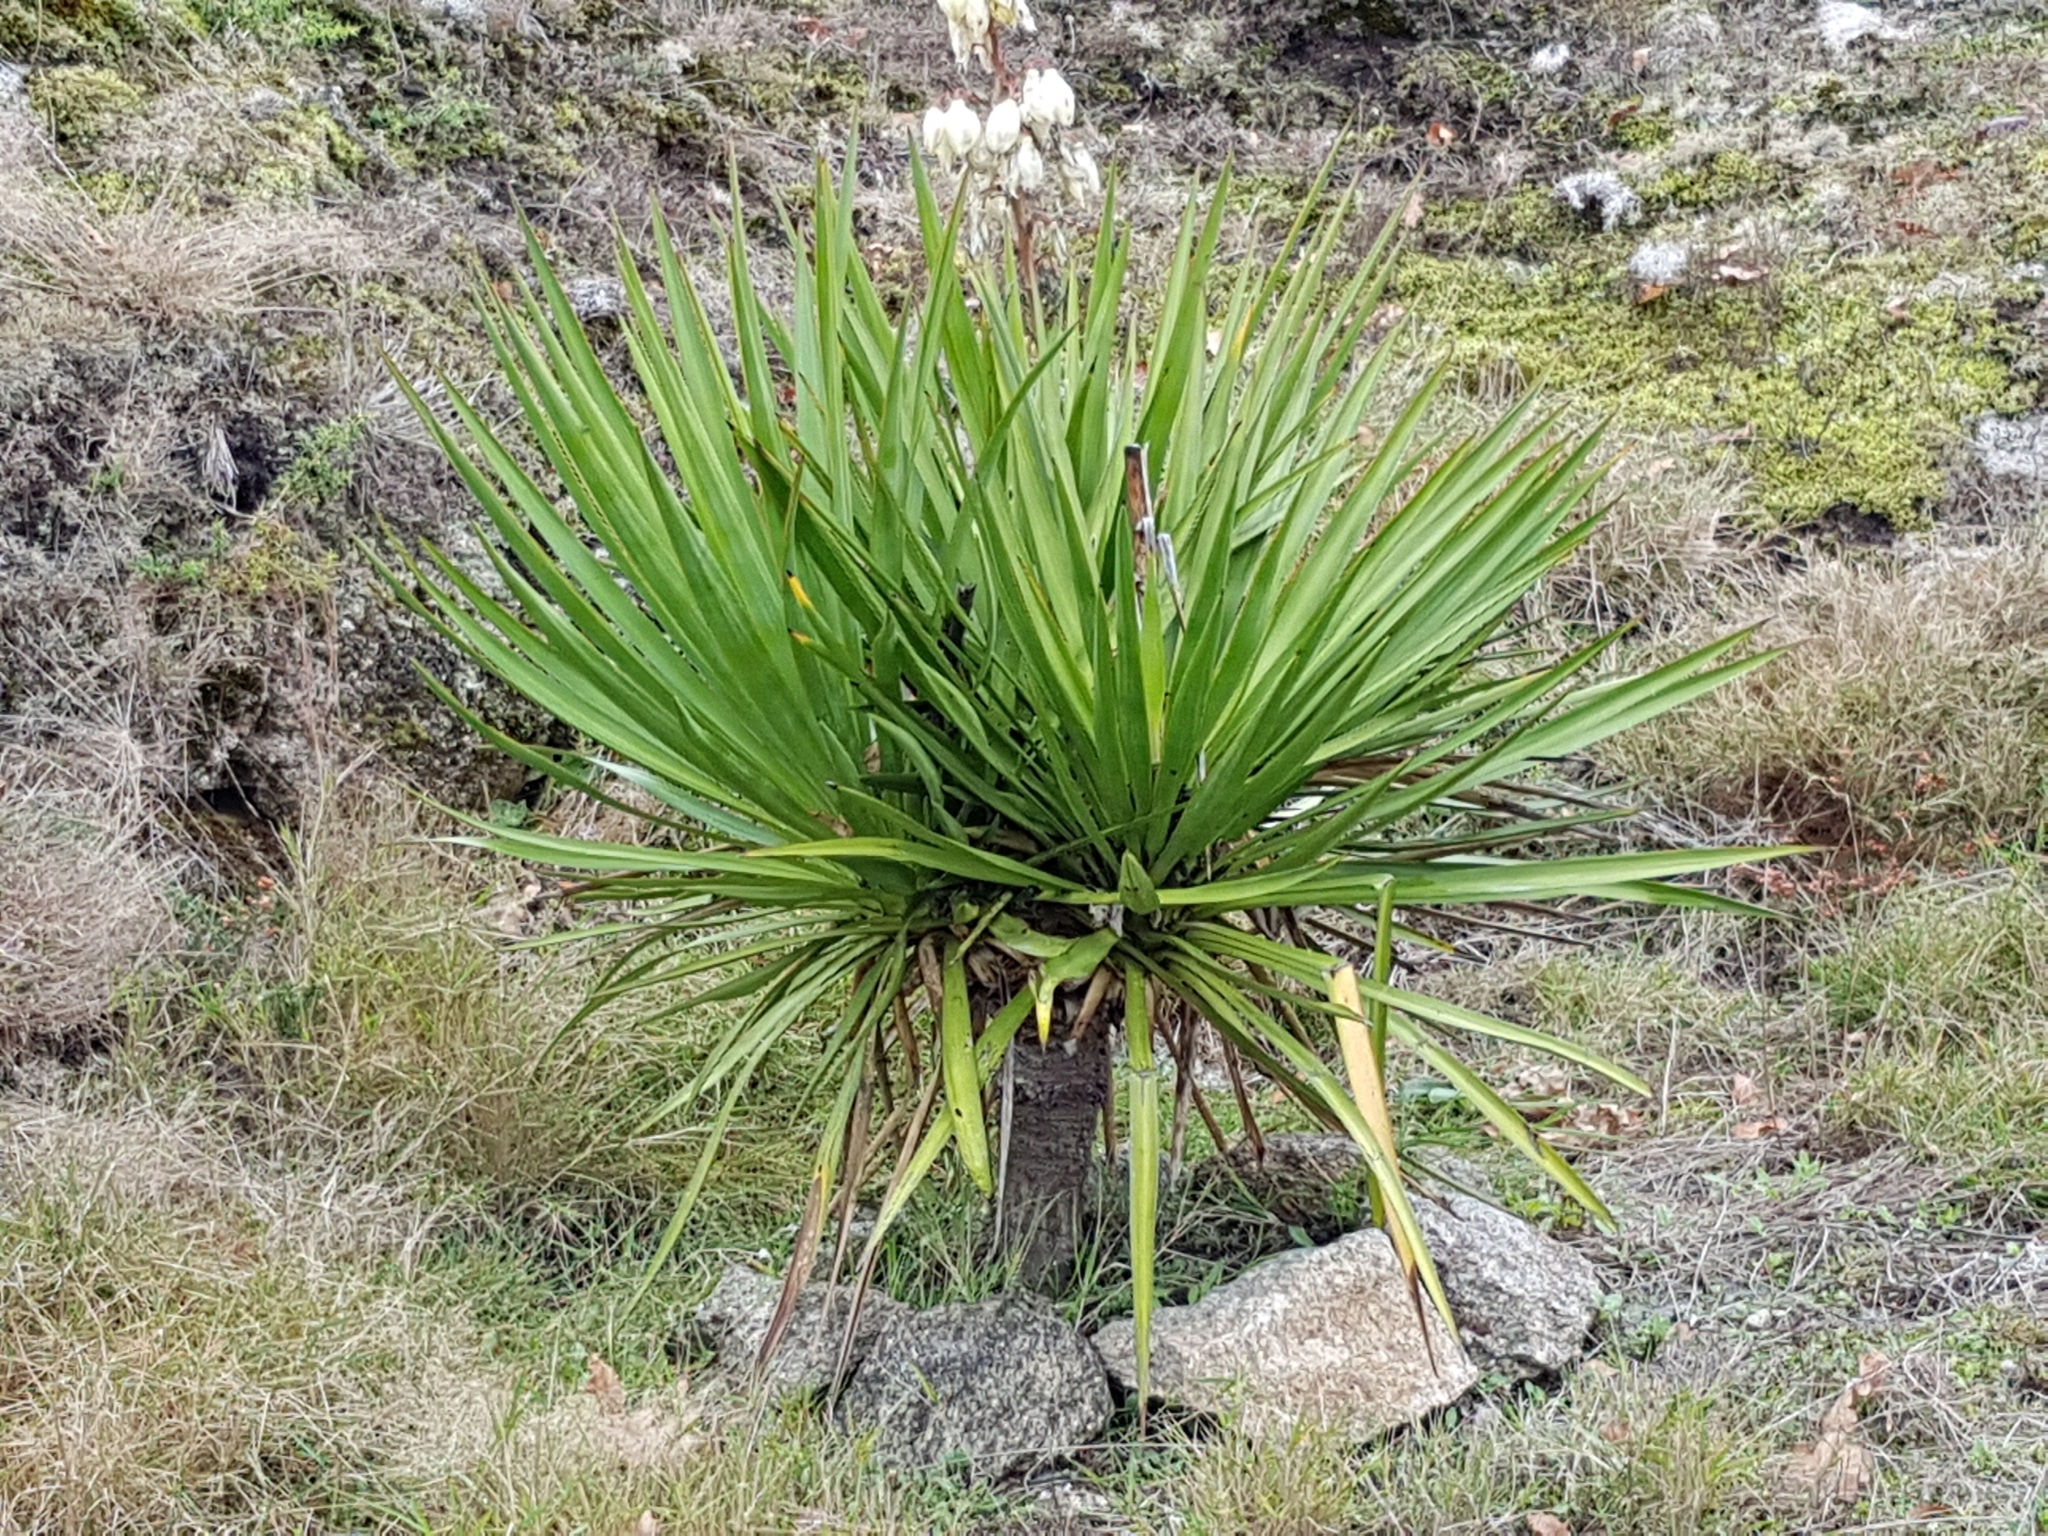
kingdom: Plantae
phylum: Tracheophyta
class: Liliopsida
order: Asparagales
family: Asparagaceae
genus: Yucca
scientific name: Yucca gloriosa
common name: Spanish-dagger
